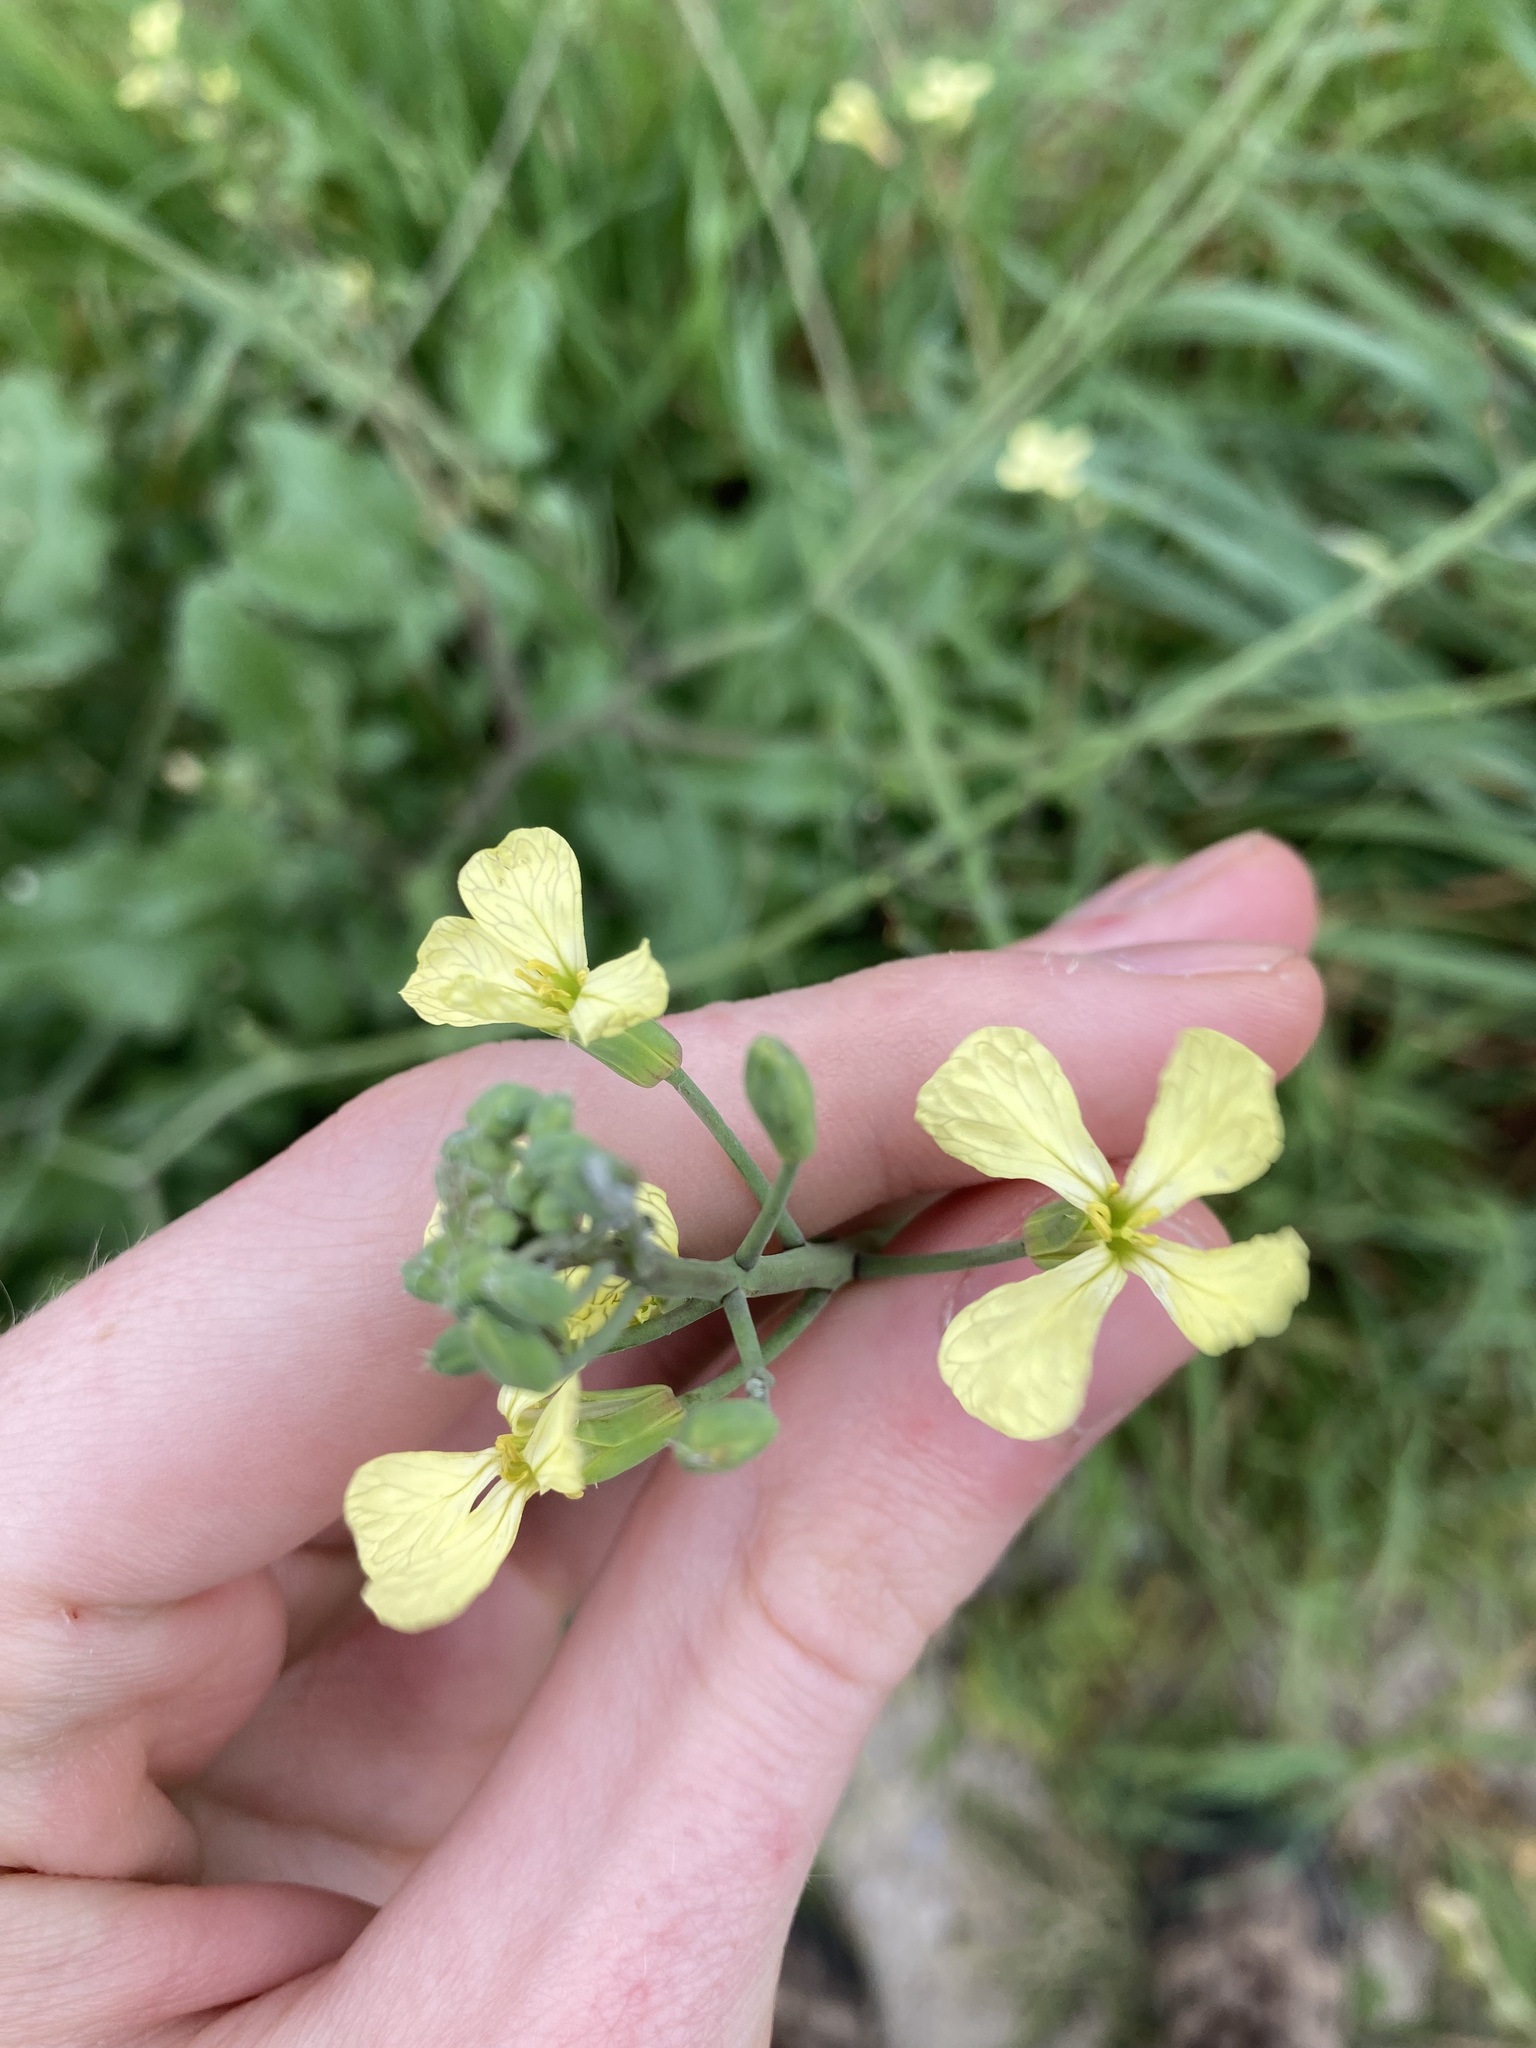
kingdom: Plantae
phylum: Tracheophyta
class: Magnoliopsida
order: Brassicales
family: Brassicaceae
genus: Raphanus
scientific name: Raphanus raphanistrum
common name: Wild radish
